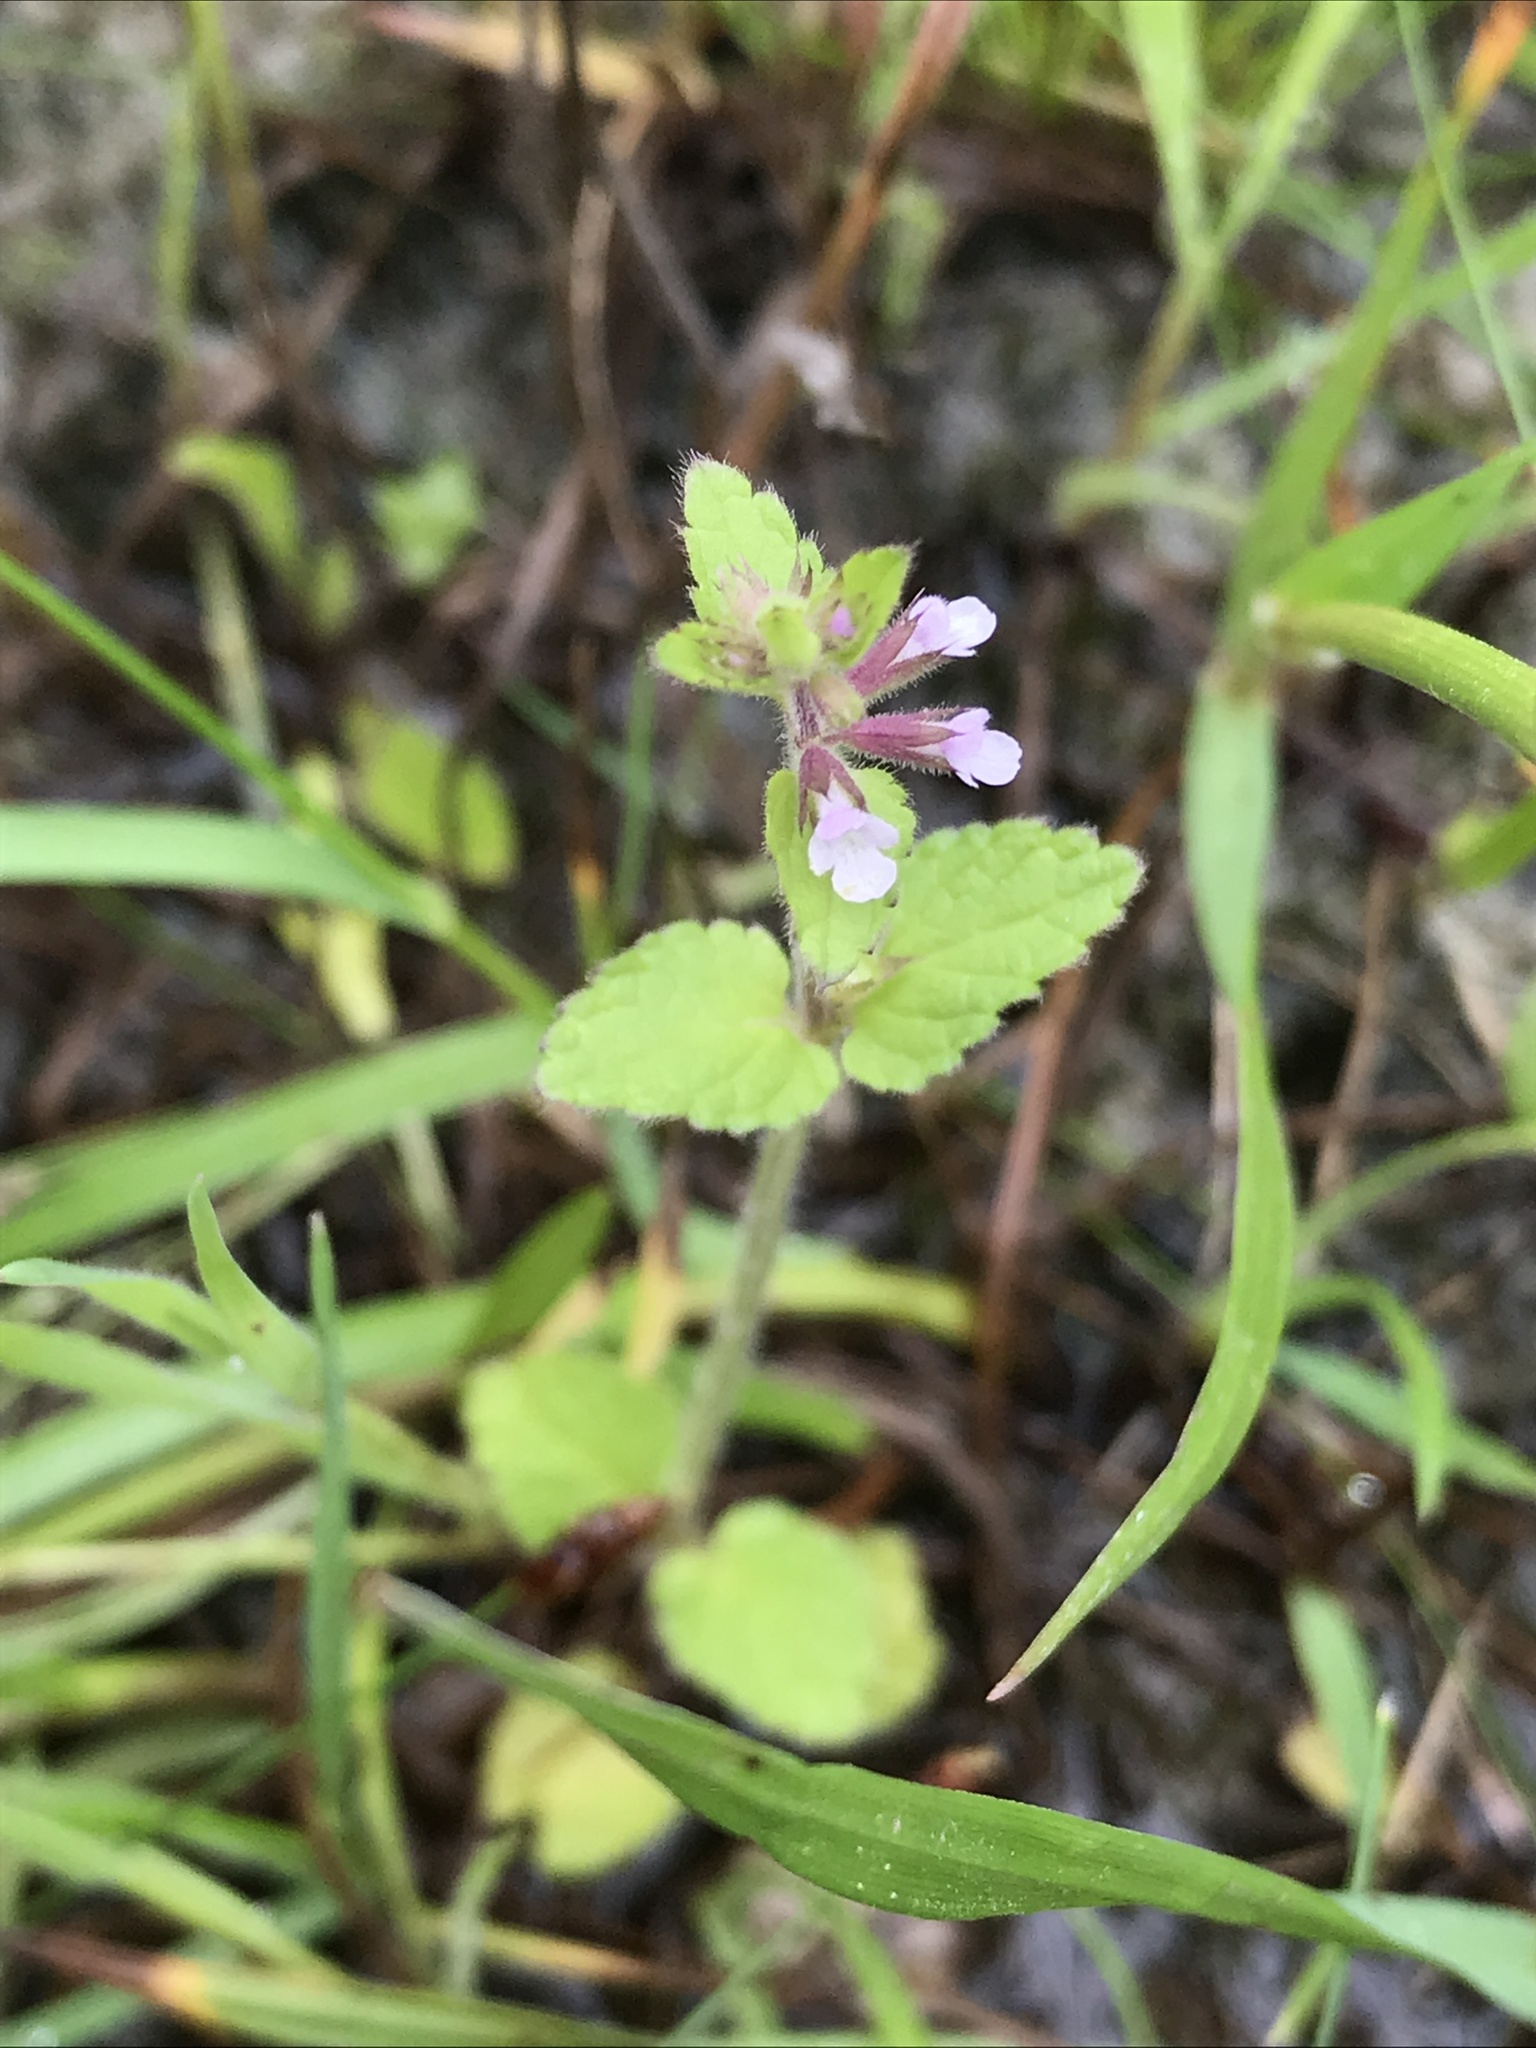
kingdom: Plantae
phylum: Tracheophyta
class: Magnoliopsida
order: Lamiales
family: Lamiaceae
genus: Stachys
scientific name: Stachys
